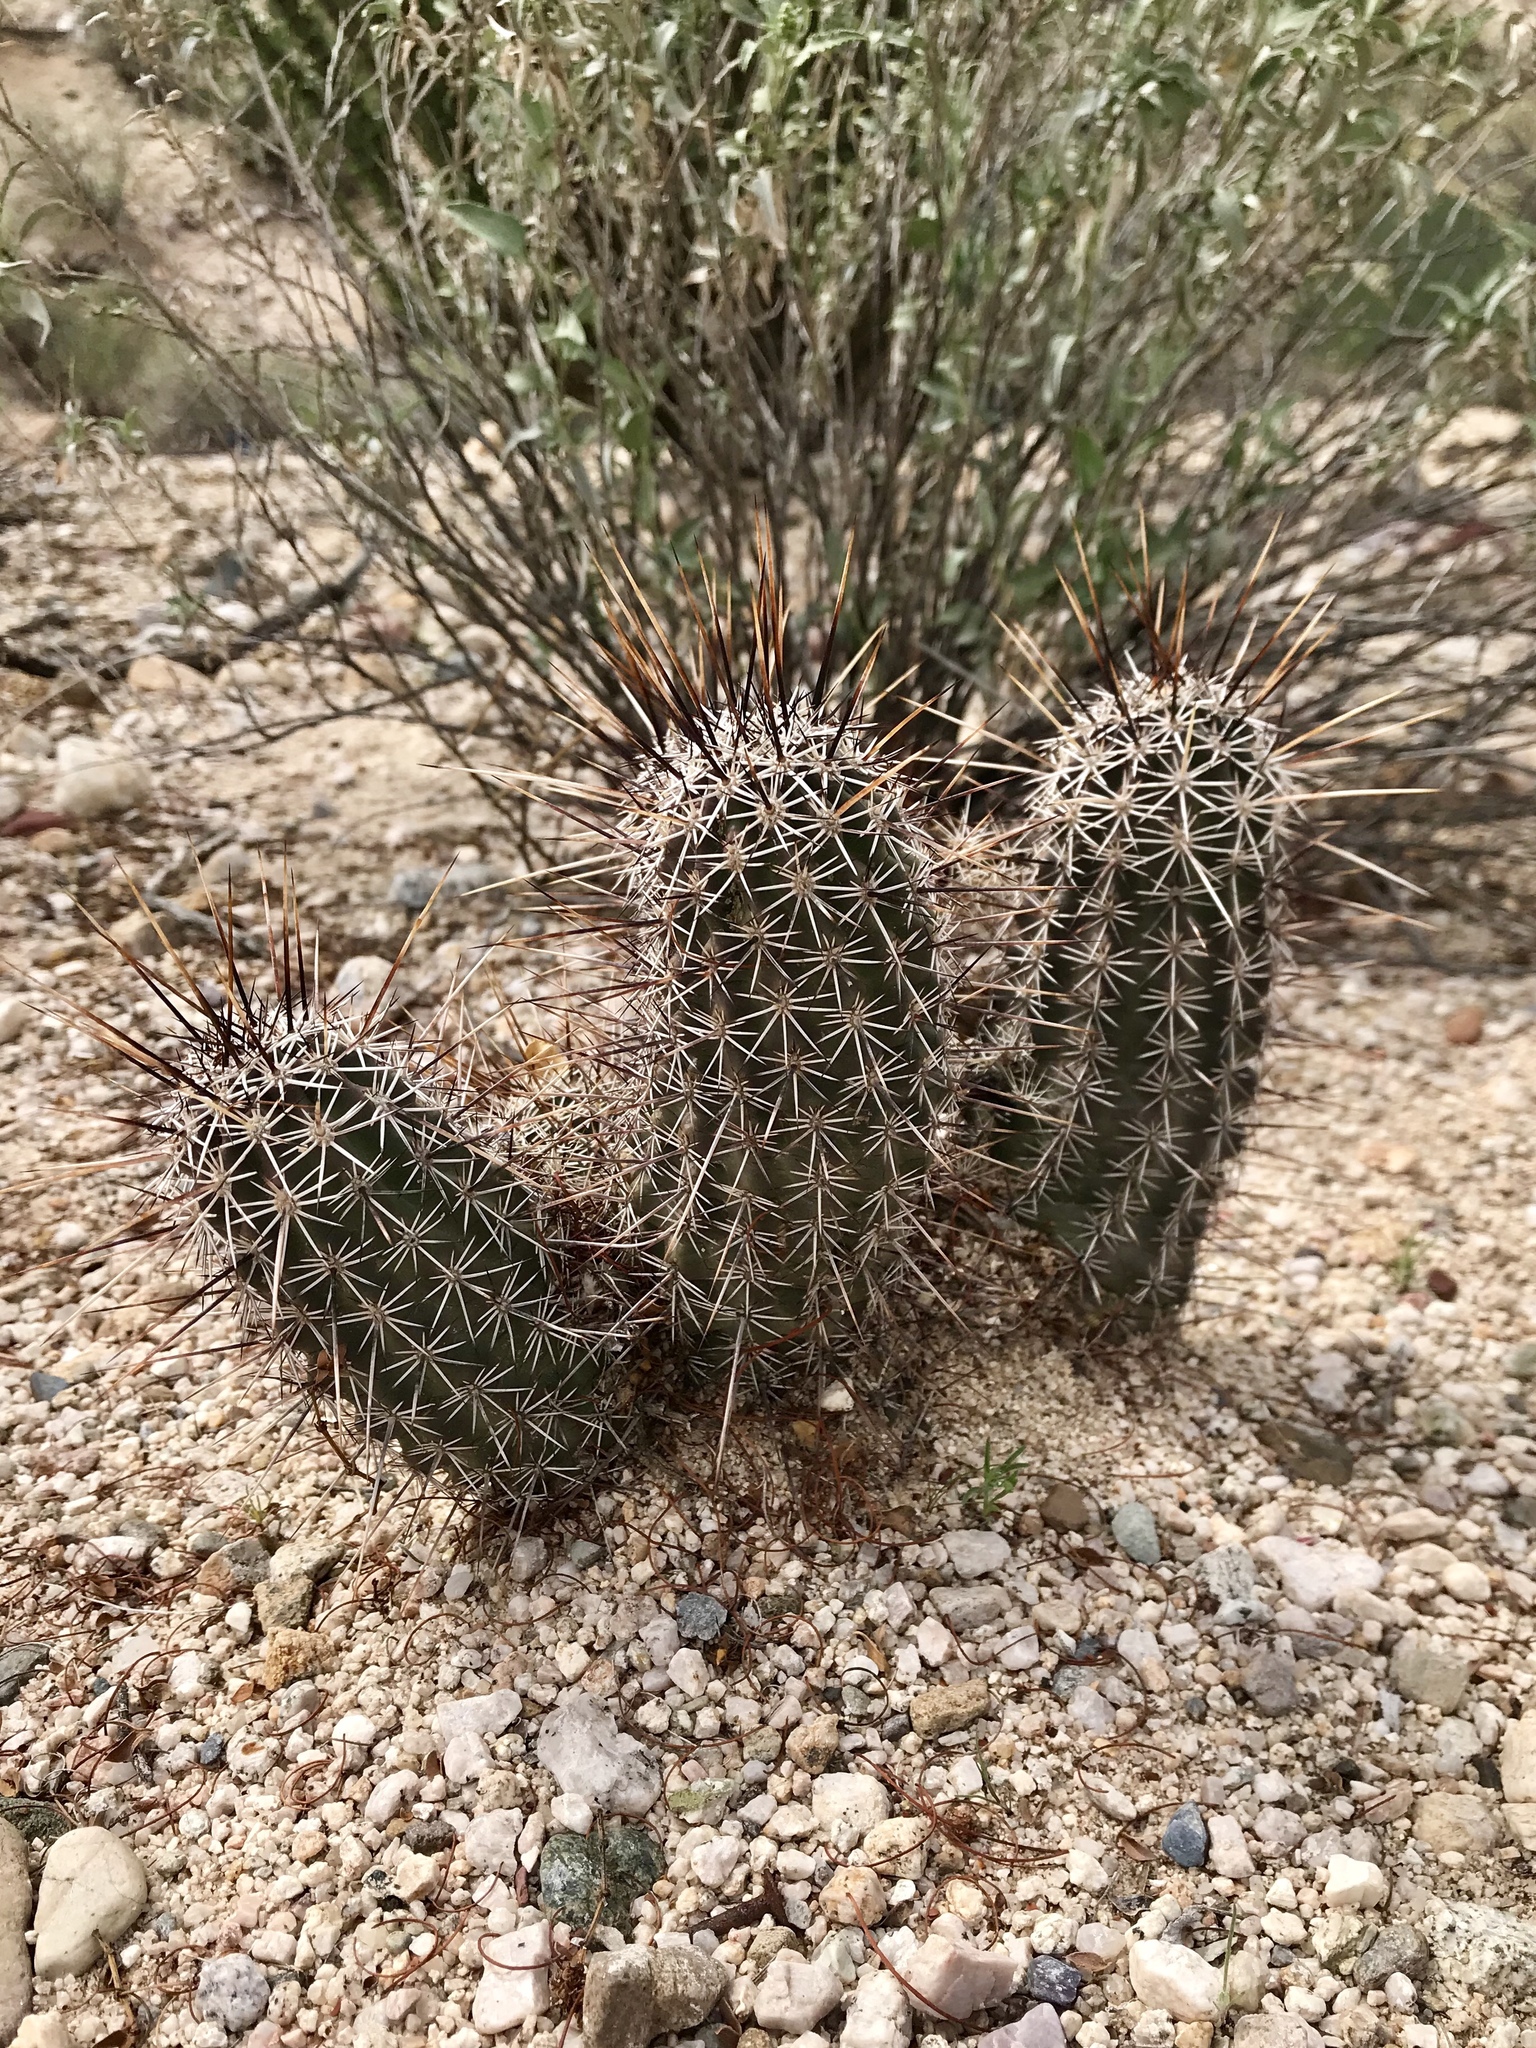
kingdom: Plantae
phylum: Tracheophyta
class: Magnoliopsida
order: Caryophyllales
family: Cactaceae
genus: Echinocereus
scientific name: Echinocereus fasciculatus
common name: Bundle hedgehog
